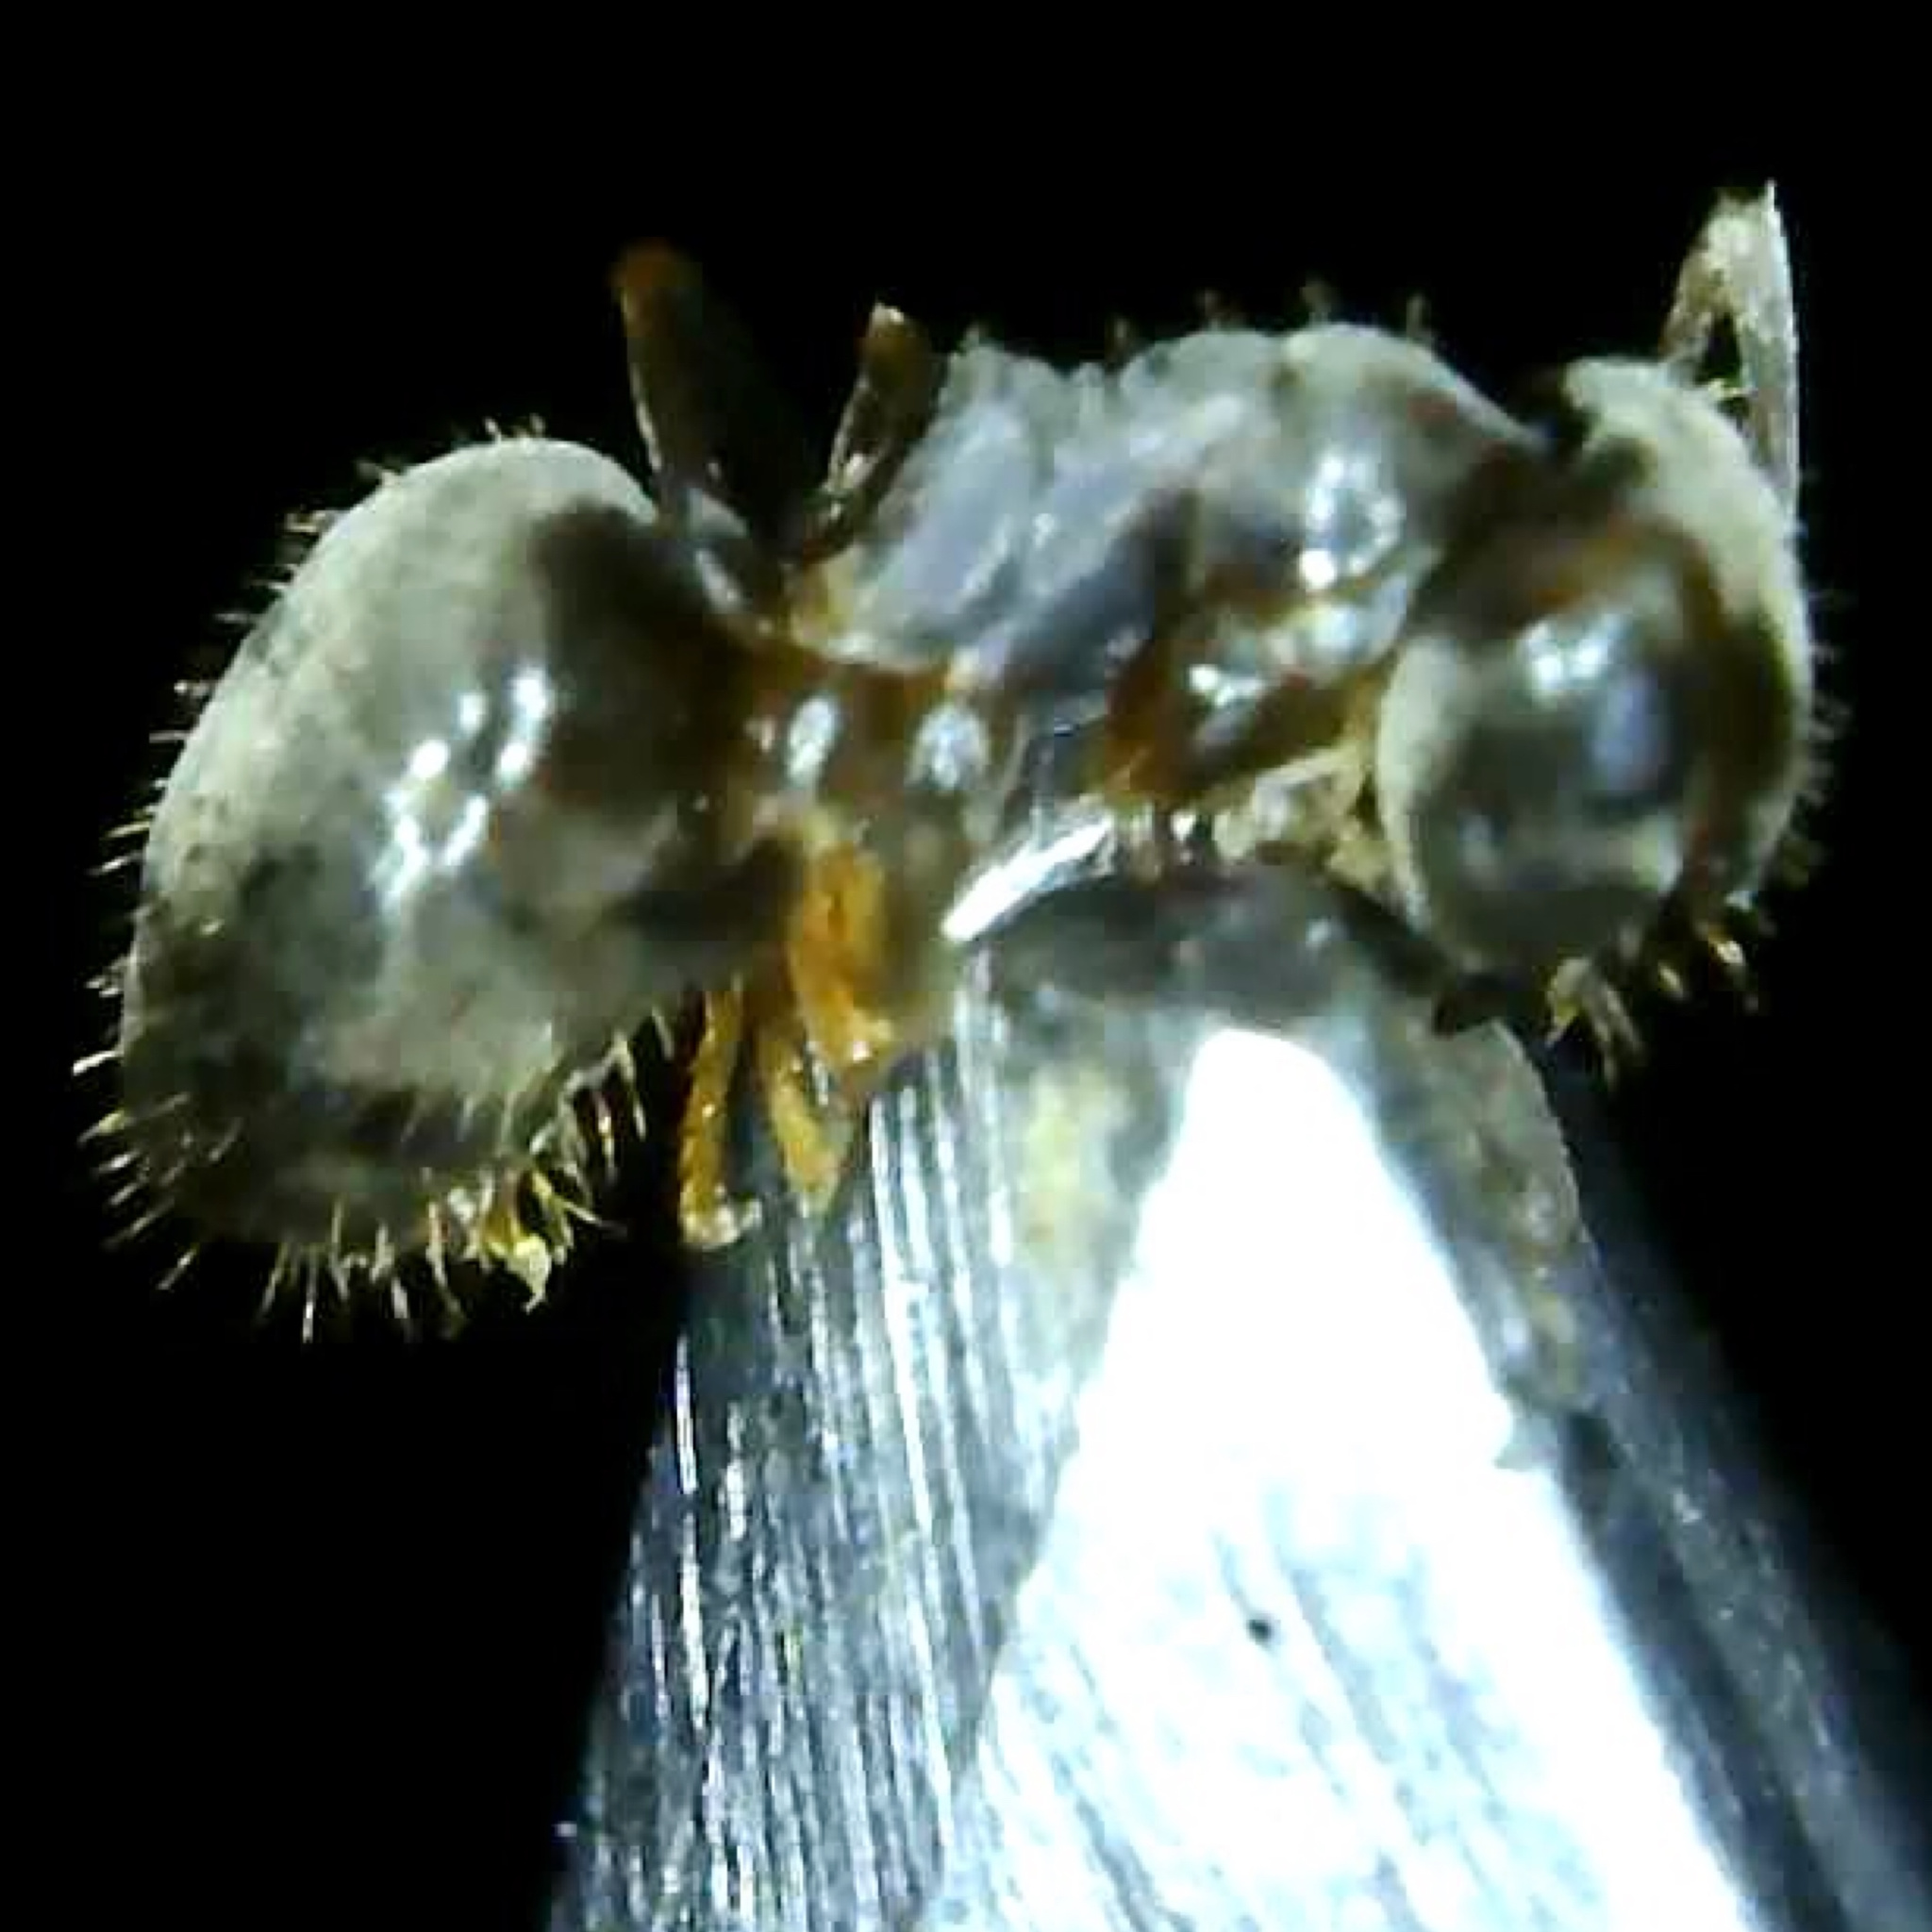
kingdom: Animalia
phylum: Arthropoda
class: Insecta
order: Hymenoptera
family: Formicidae
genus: Lasius
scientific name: Lasius americanus
